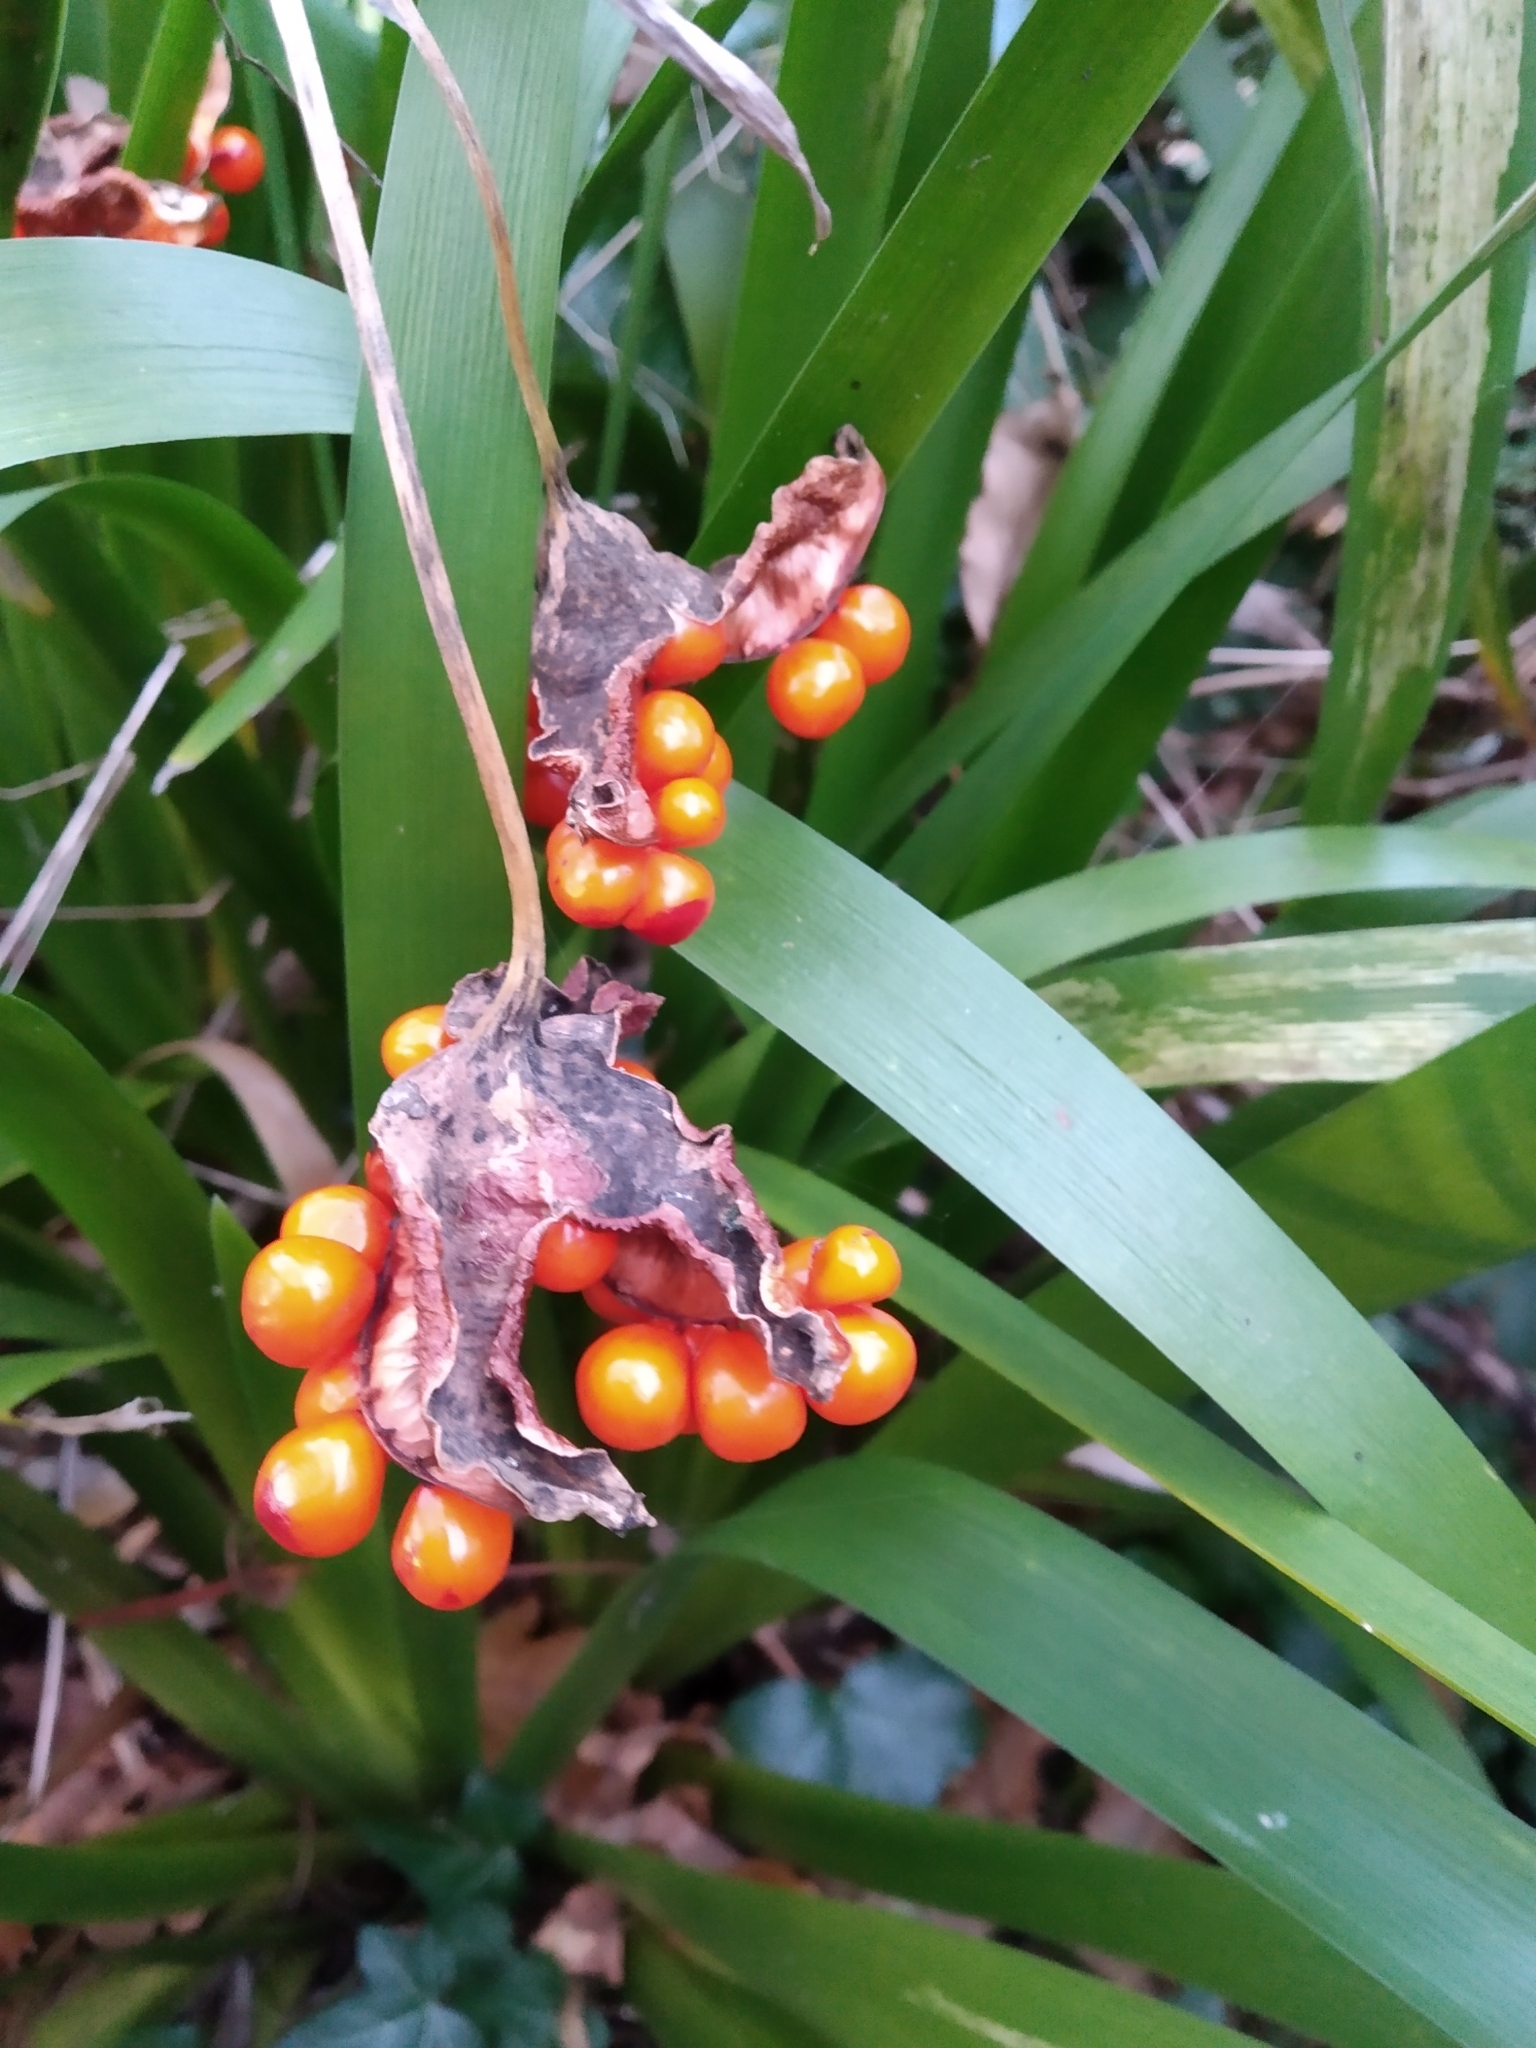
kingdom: Plantae
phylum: Tracheophyta
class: Liliopsida
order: Asparagales
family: Iridaceae
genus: Iris
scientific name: Iris foetidissima
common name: Stinking iris
